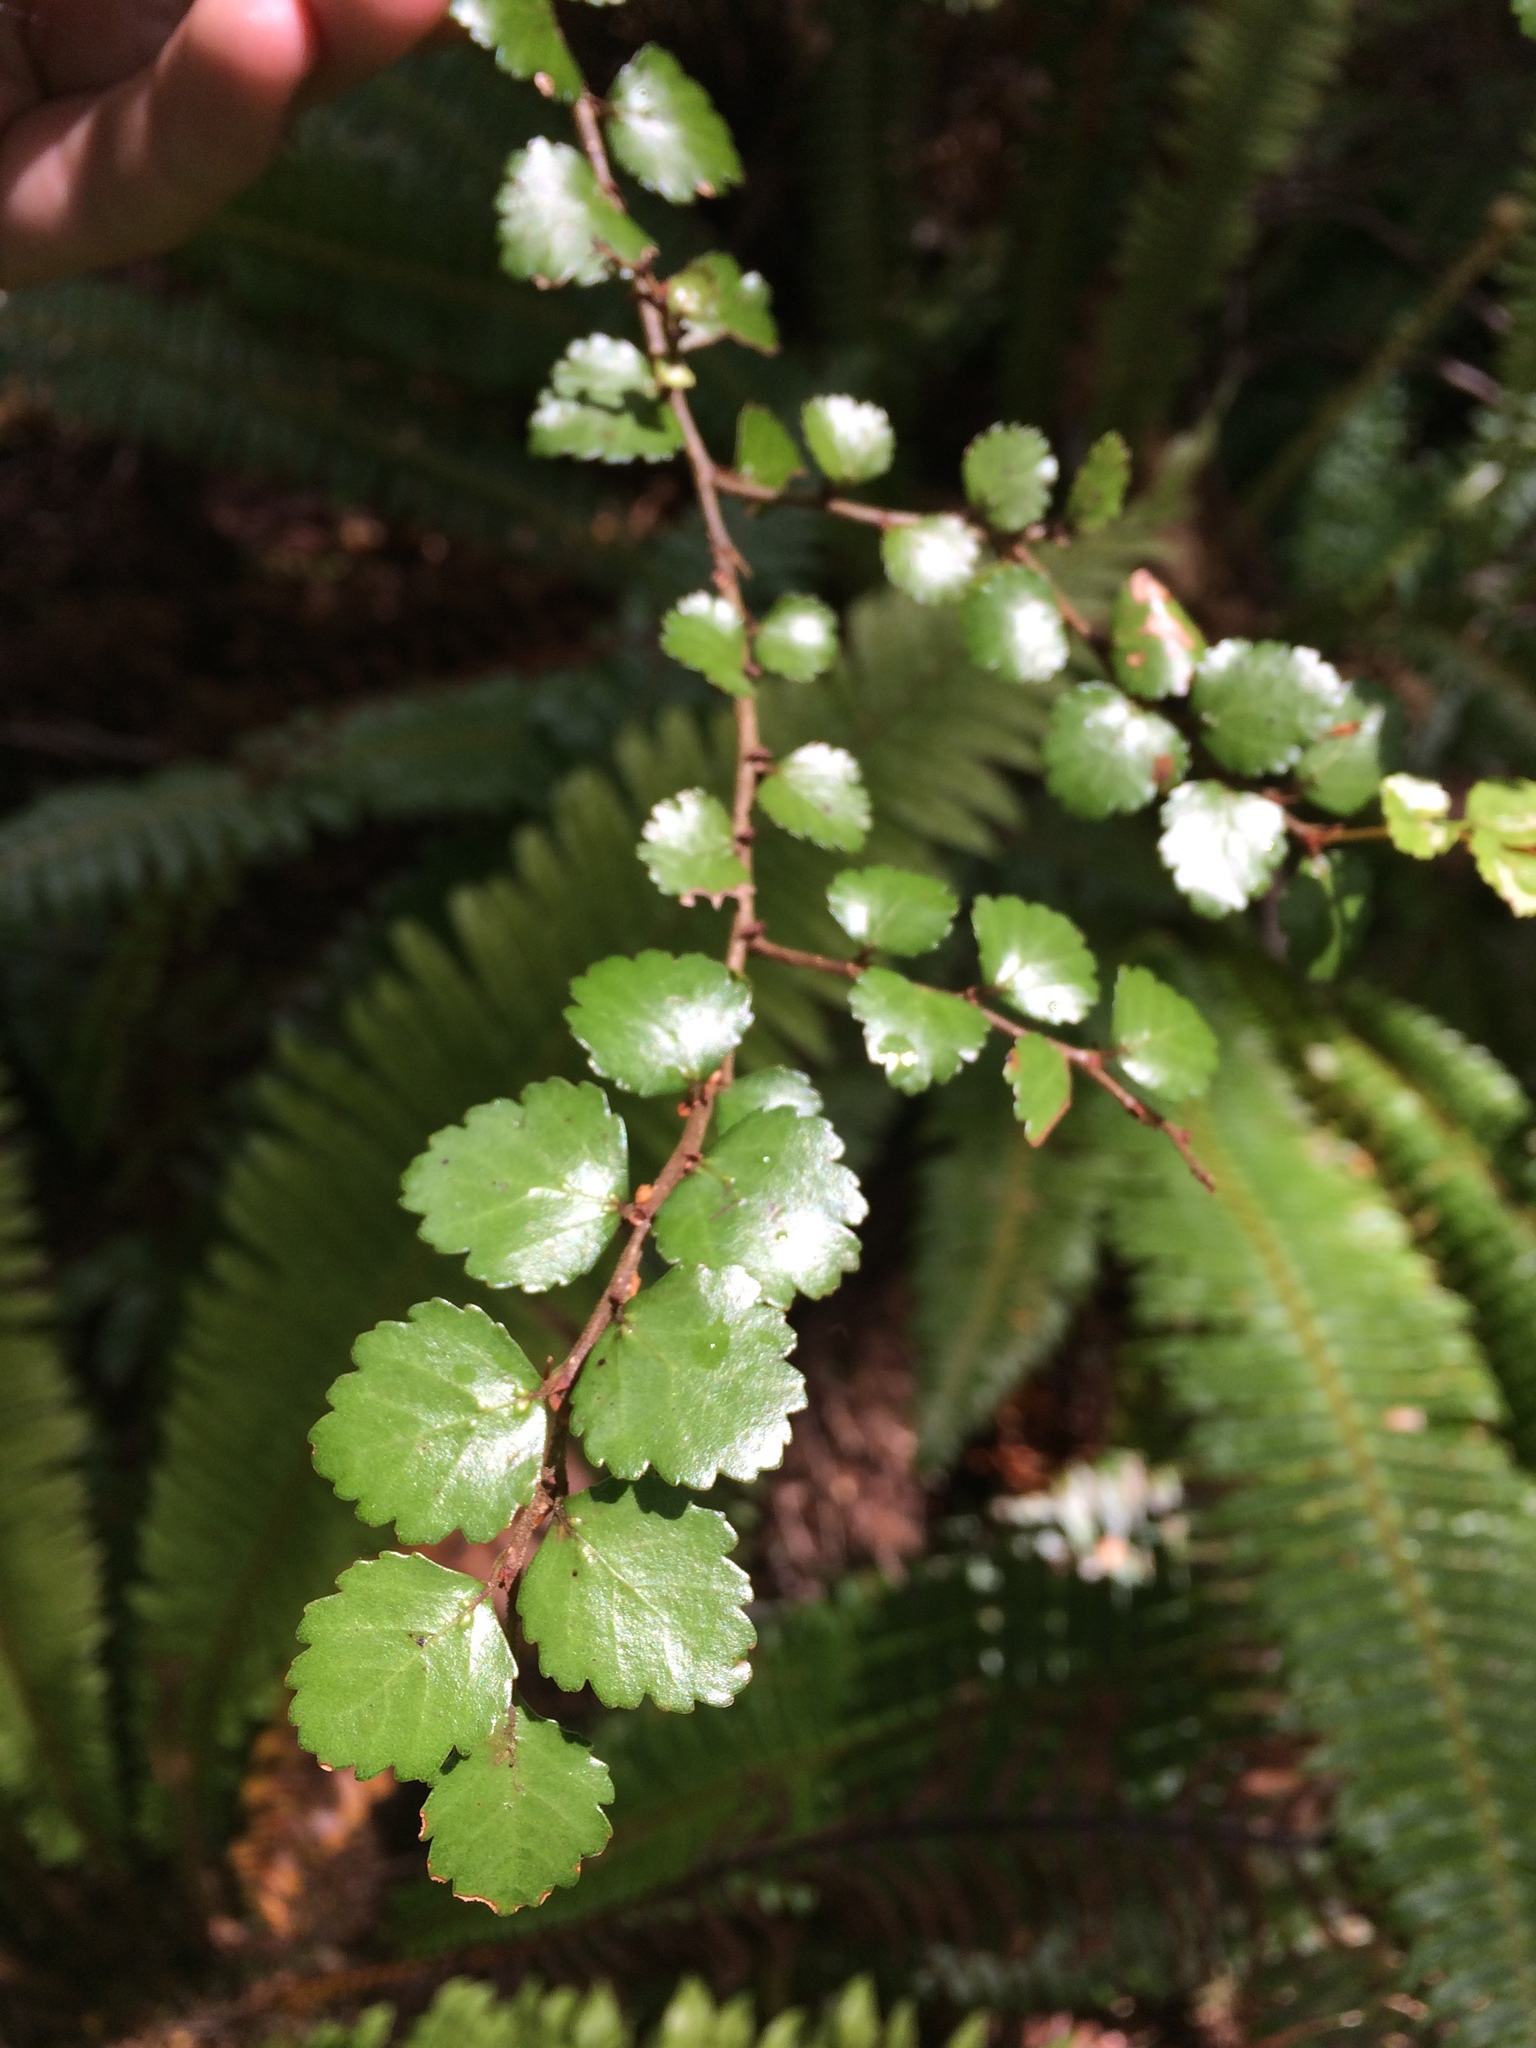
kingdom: Plantae
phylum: Tracheophyta
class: Magnoliopsida
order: Fagales
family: Nothofagaceae
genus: Nothofagus
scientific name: Nothofagus menziesii
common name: Silver beech
